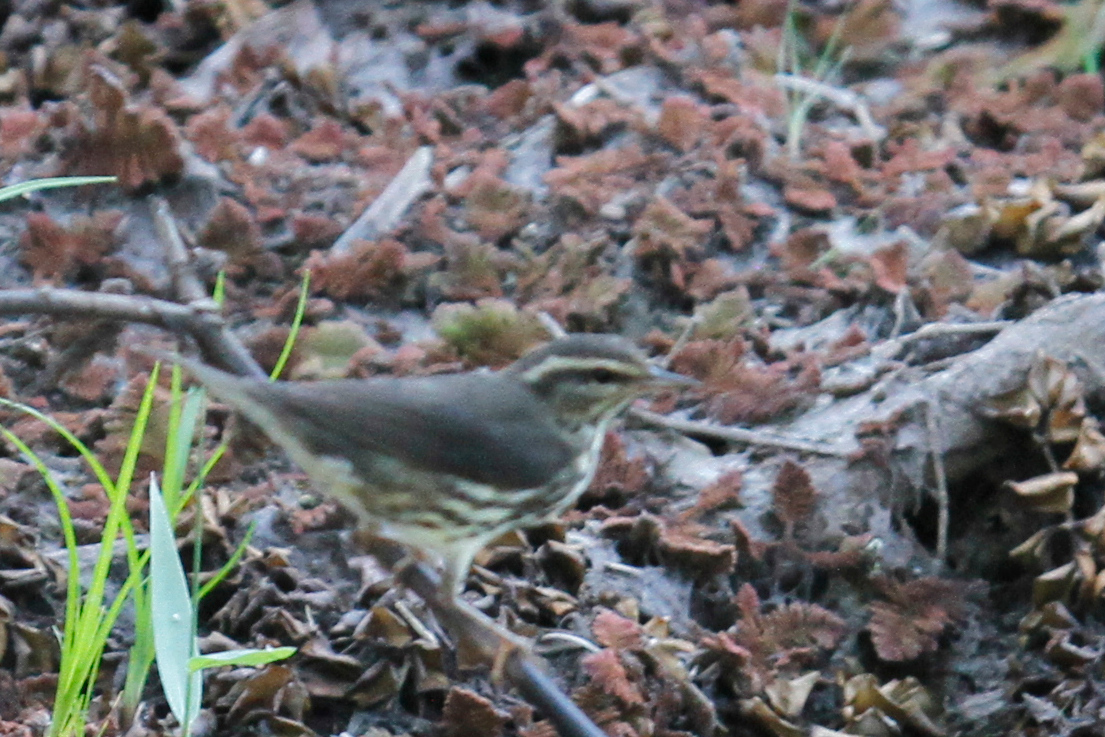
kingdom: Animalia
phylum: Chordata
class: Aves
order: Passeriformes
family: Parulidae
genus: Parkesia
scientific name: Parkesia noveboracensis
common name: Northern waterthrush
